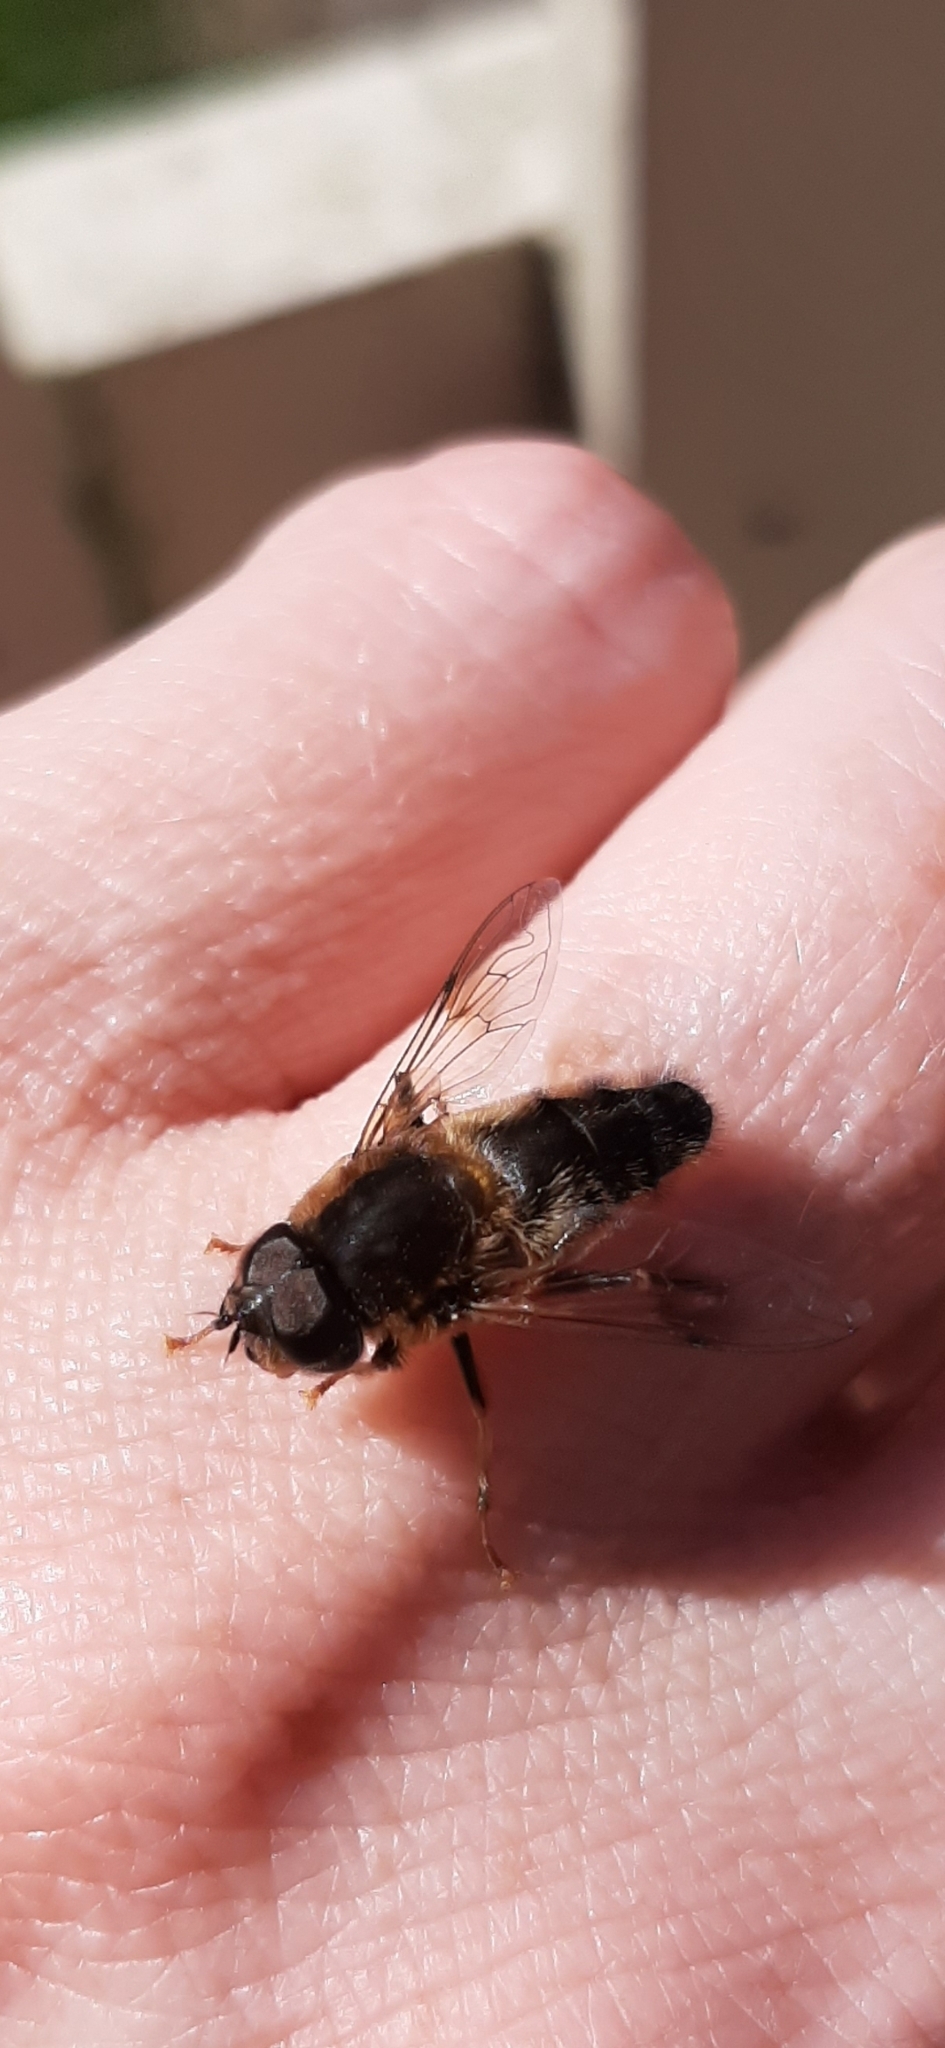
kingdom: Animalia
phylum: Arthropoda
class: Insecta
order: Diptera
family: Syrphidae
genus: Eristalis
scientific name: Eristalis pertinax
